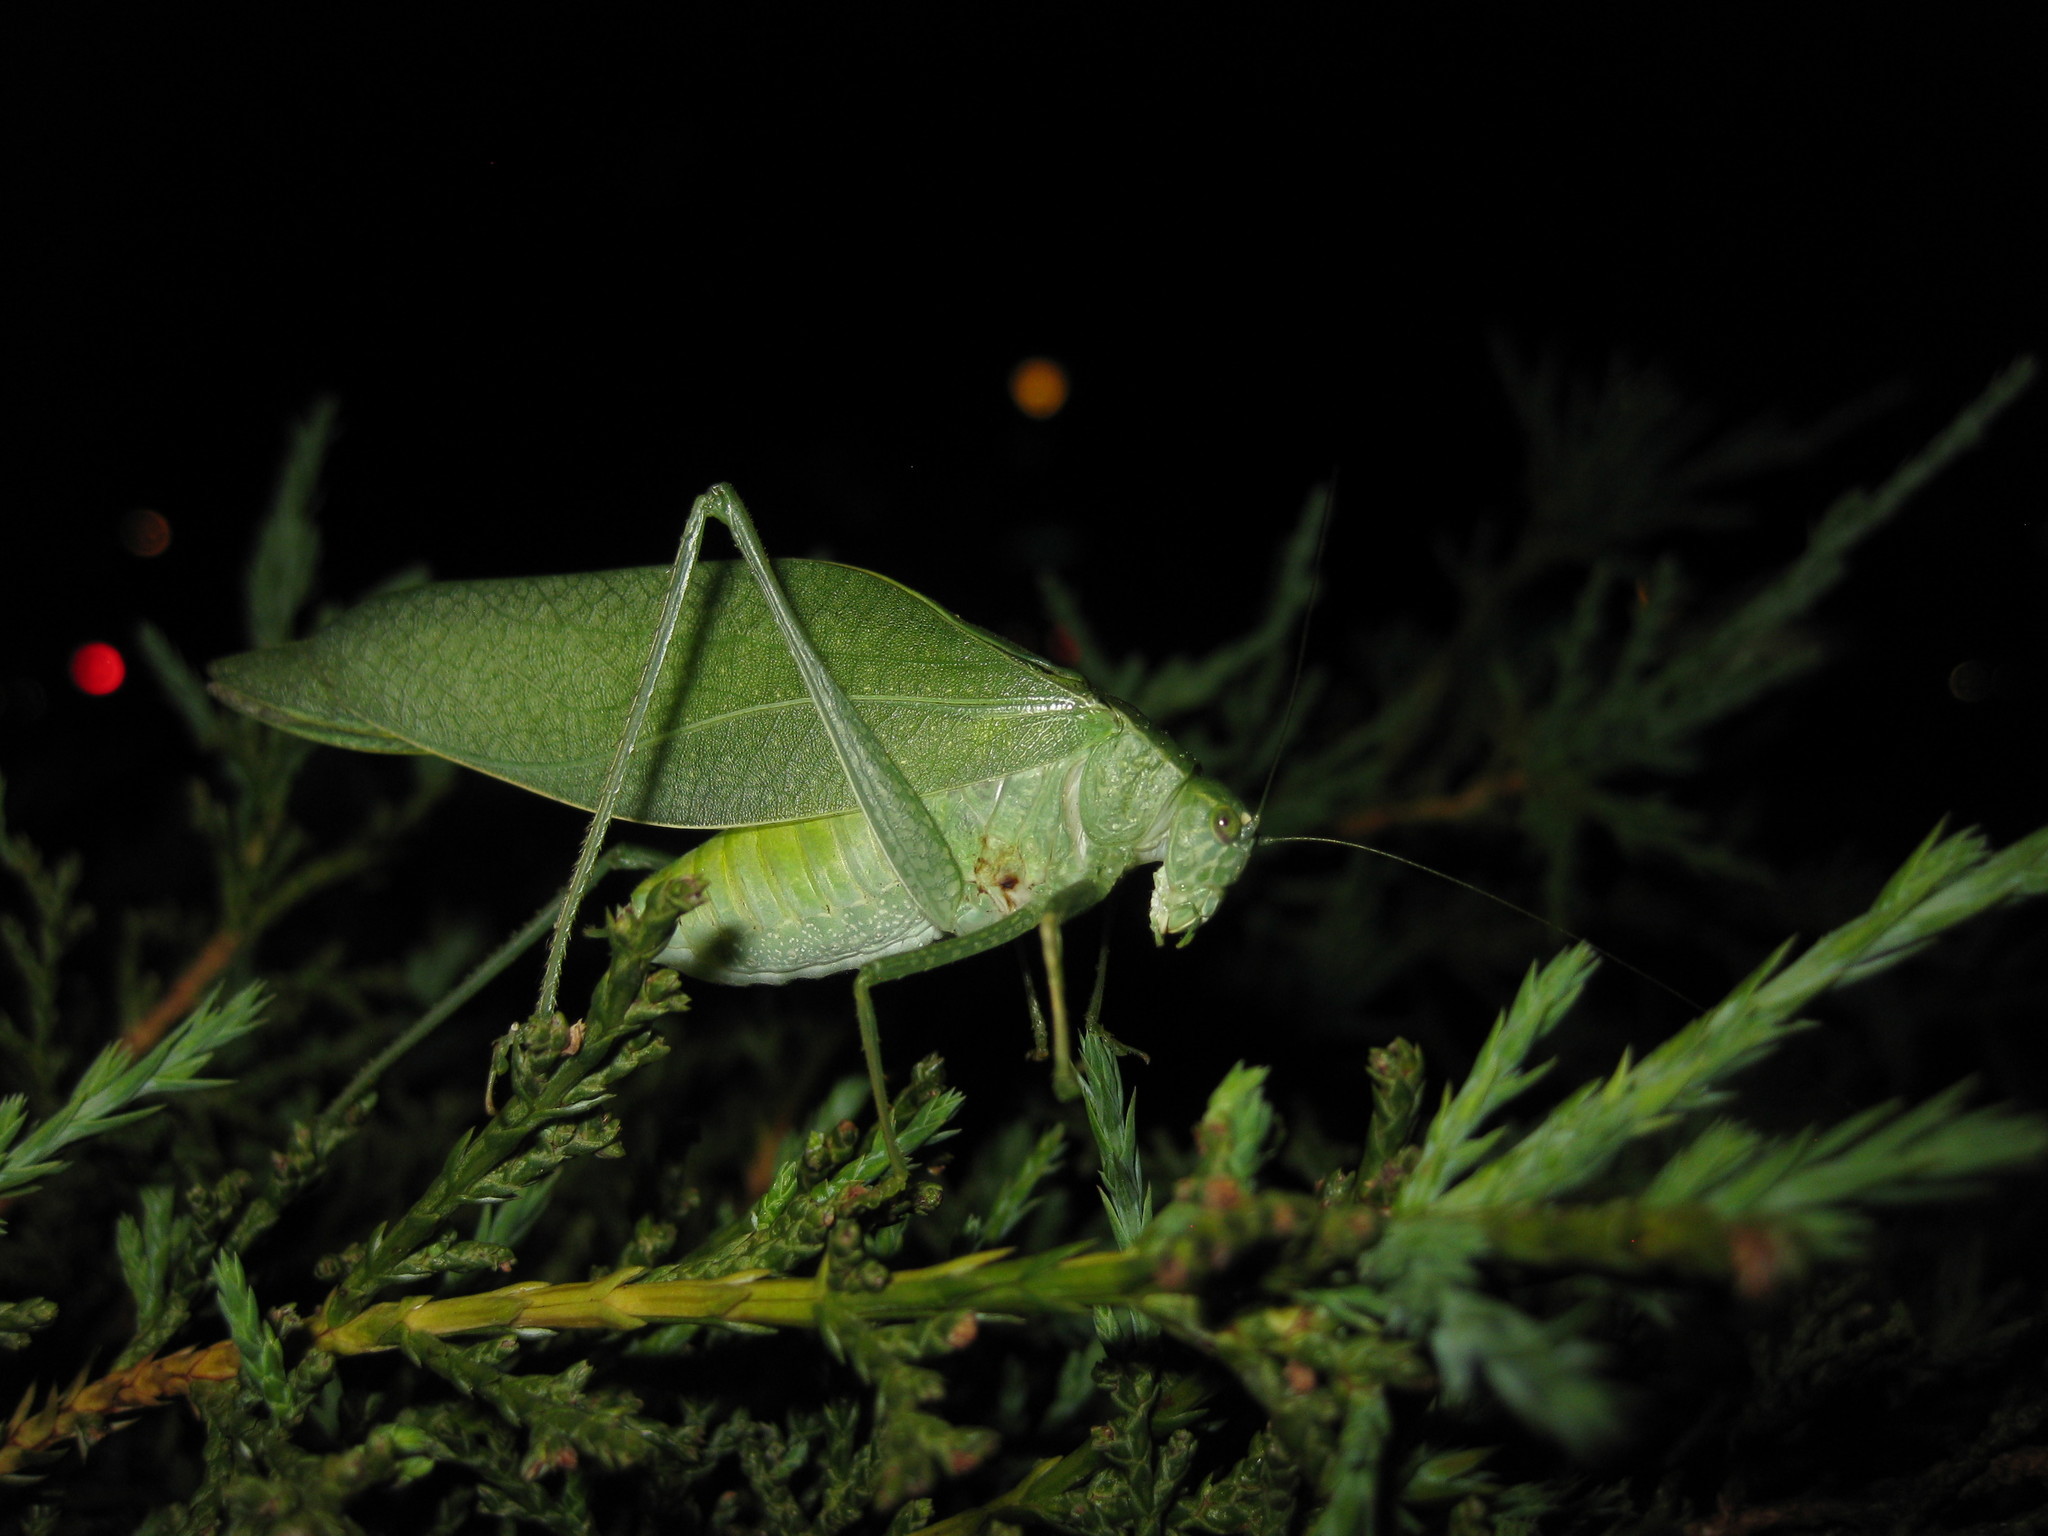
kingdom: Animalia
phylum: Arthropoda
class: Insecta
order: Orthoptera
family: Tettigoniidae
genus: Microcentrum
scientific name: Microcentrum rhombifolium
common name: Broad-winged katydid
